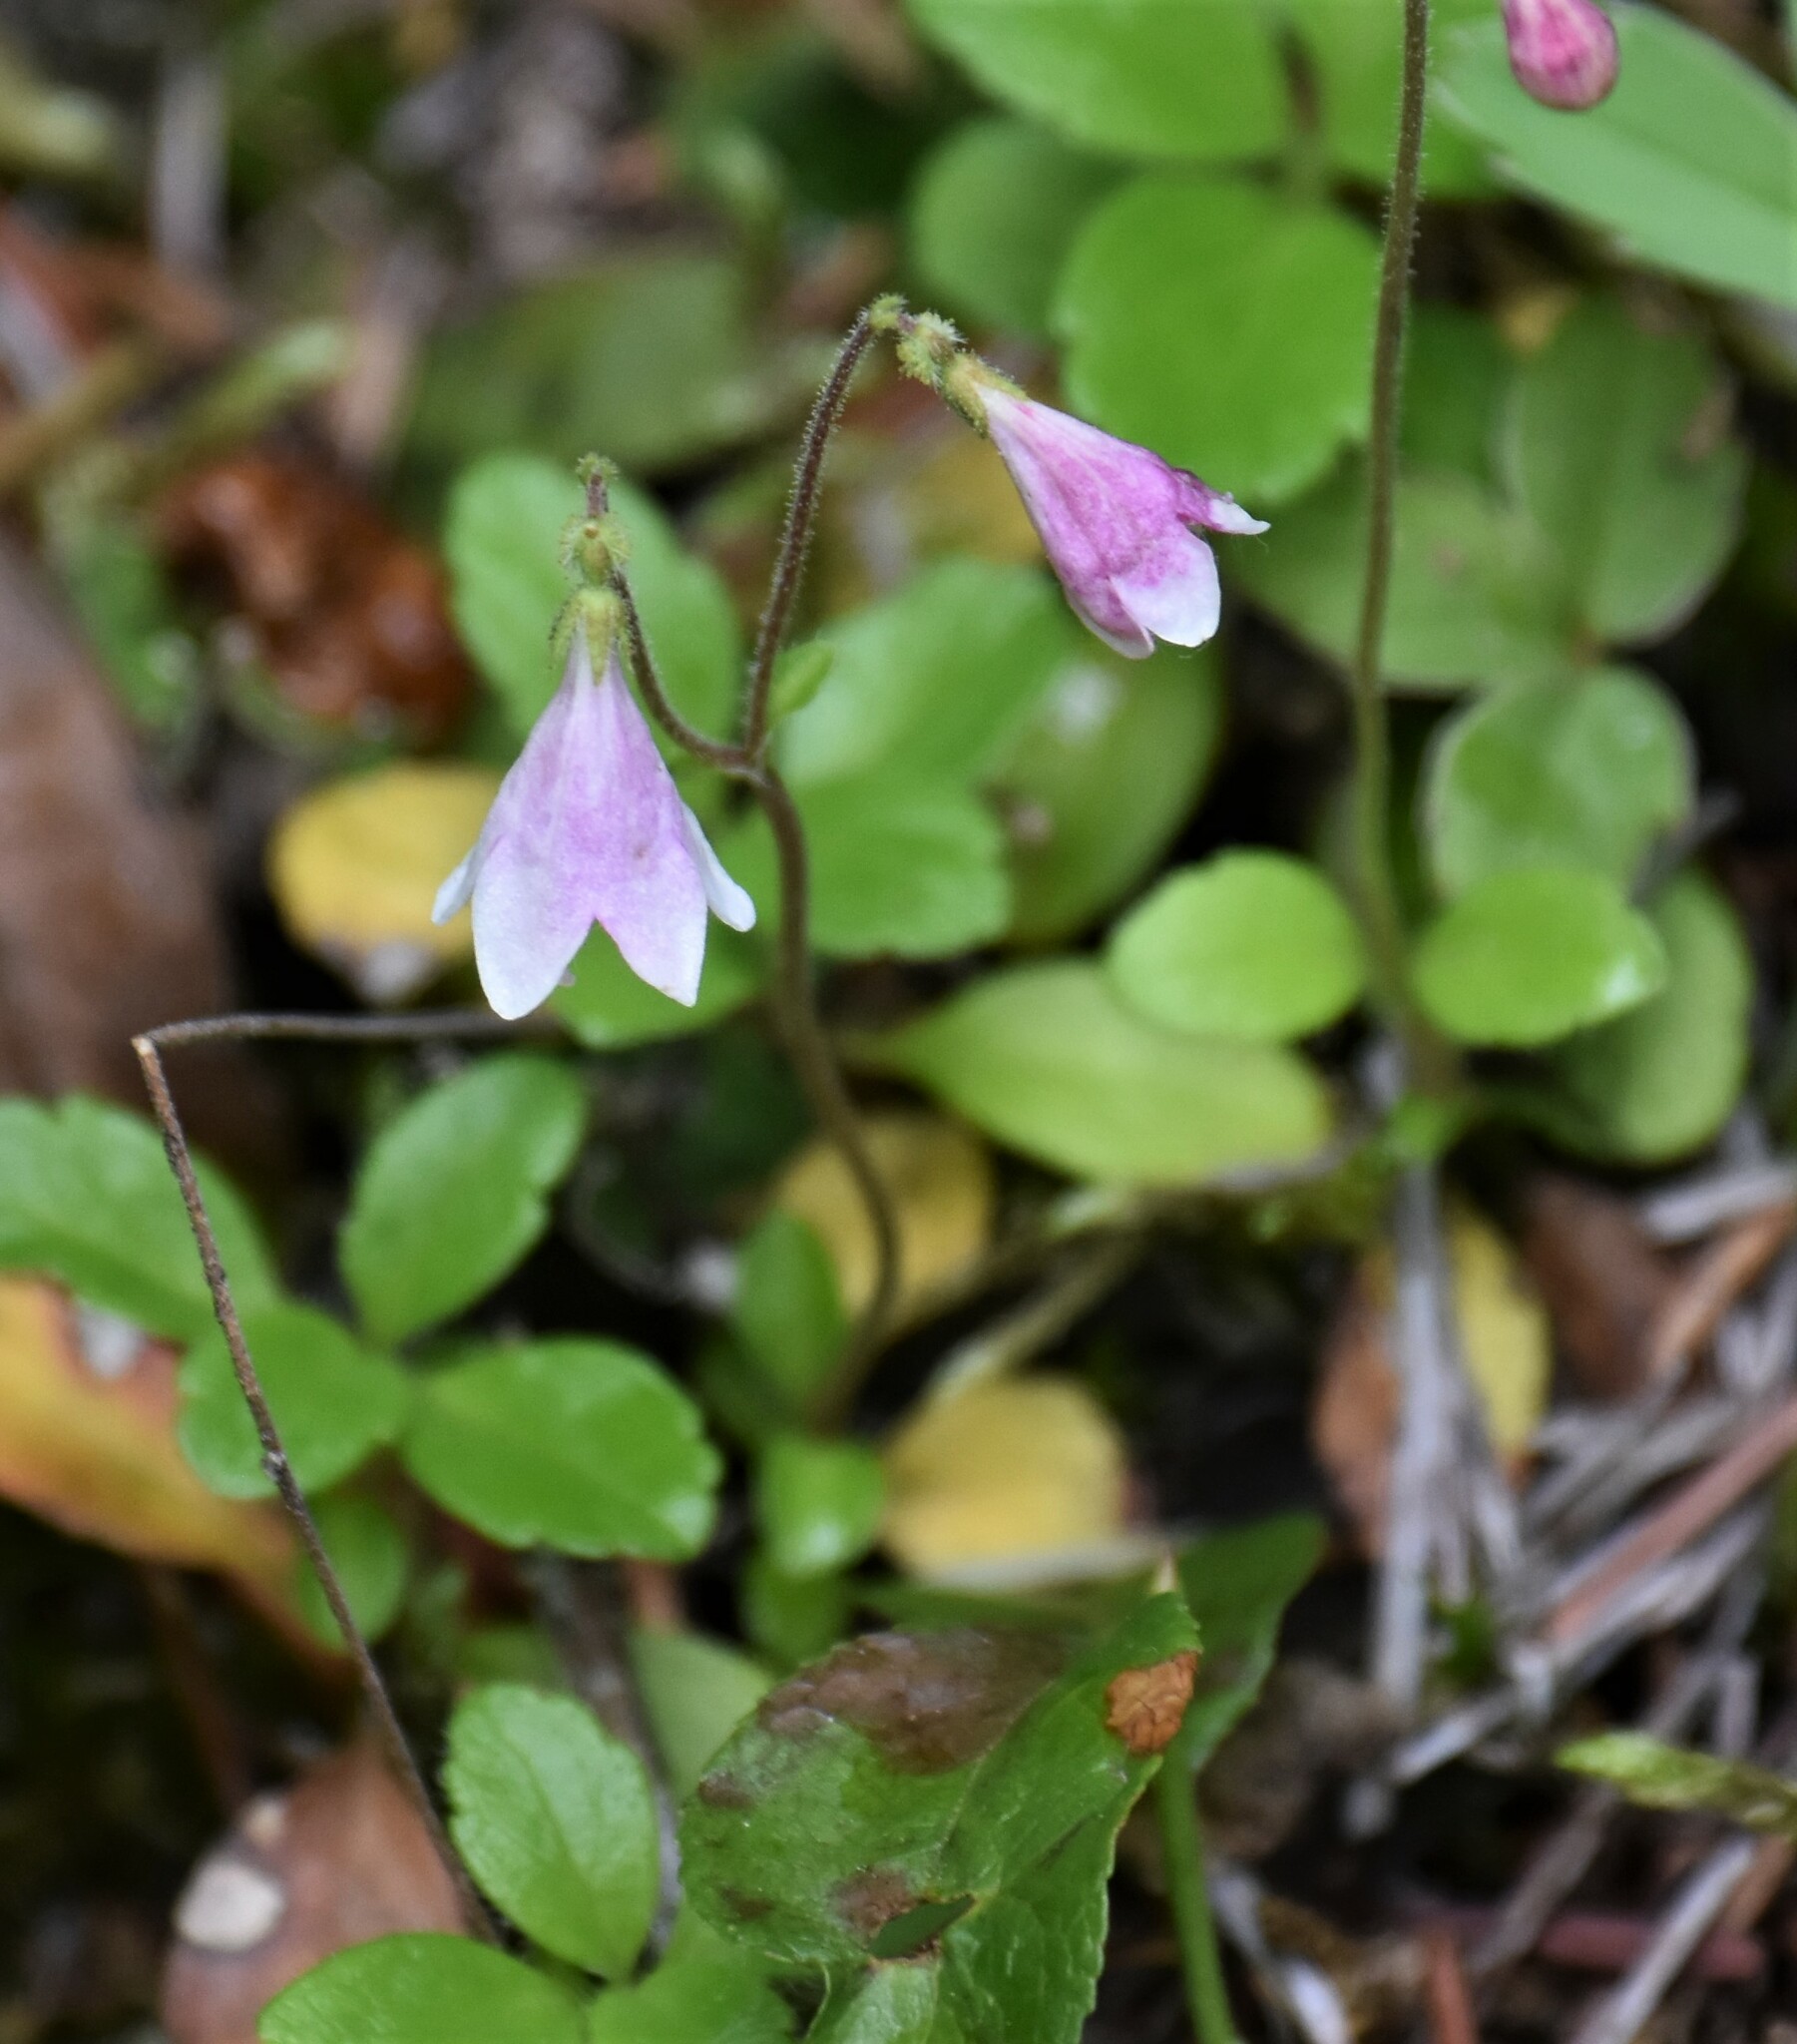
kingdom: Plantae
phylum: Tracheophyta
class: Magnoliopsida
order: Dipsacales
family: Caprifoliaceae
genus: Linnaea
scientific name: Linnaea borealis
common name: Twinflower
